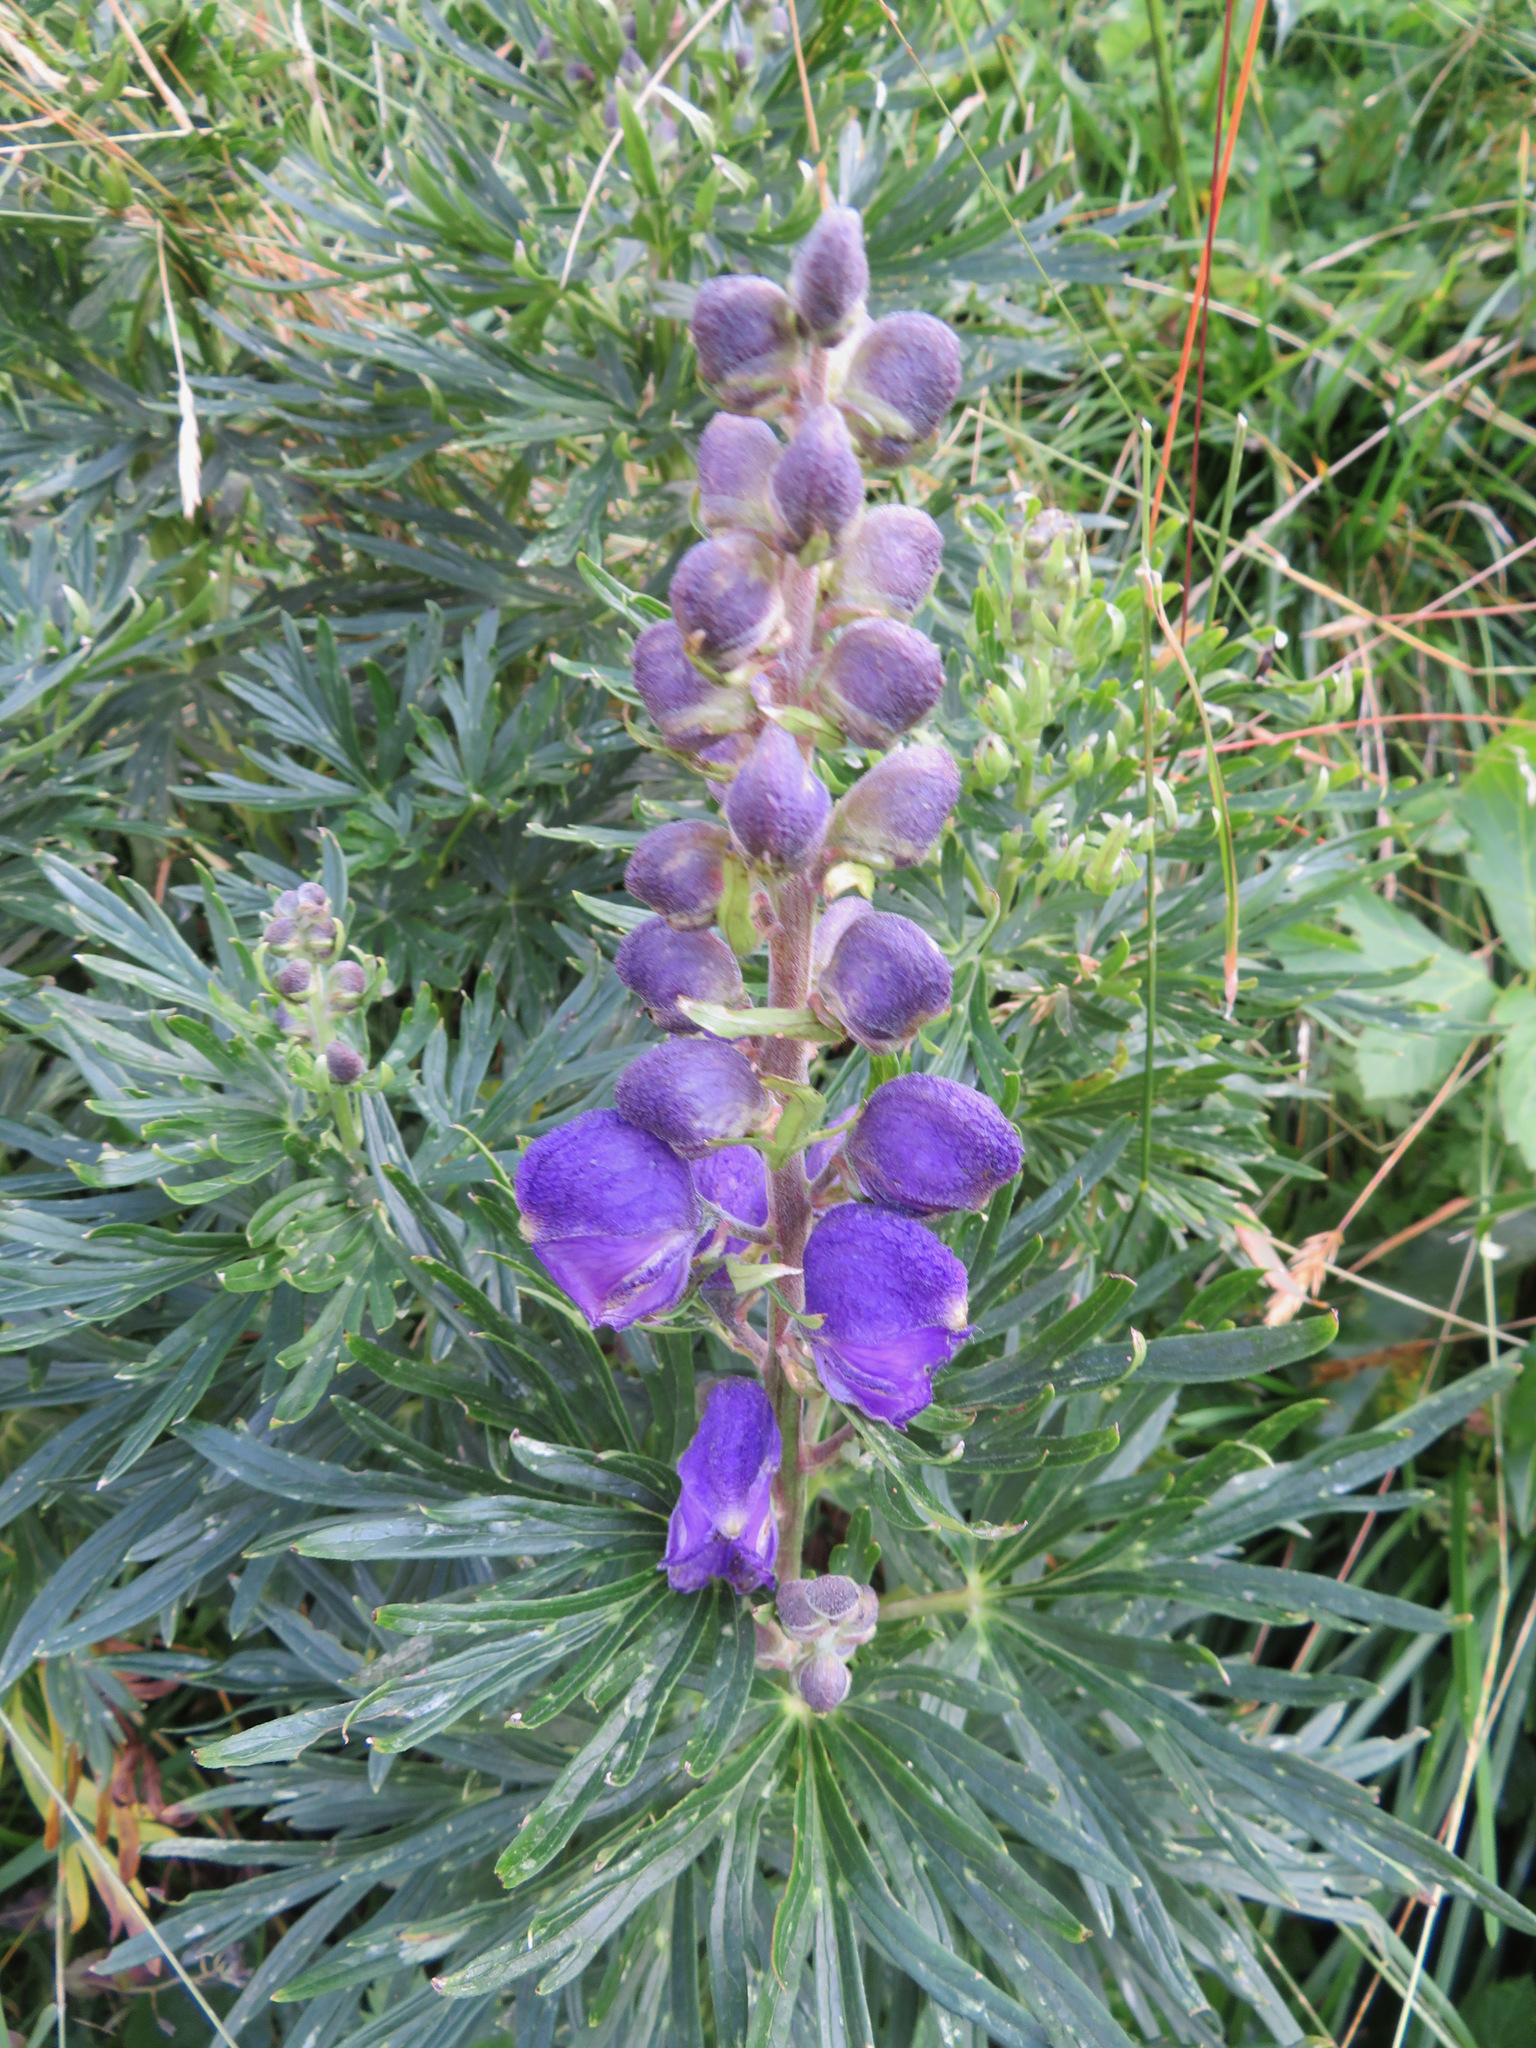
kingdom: Plantae
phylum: Tracheophyta
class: Magnoliopsida
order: Ranunculales
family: Ranunculaceae
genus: Aconitum
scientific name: Aconitum napellus
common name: Garden monkshood
